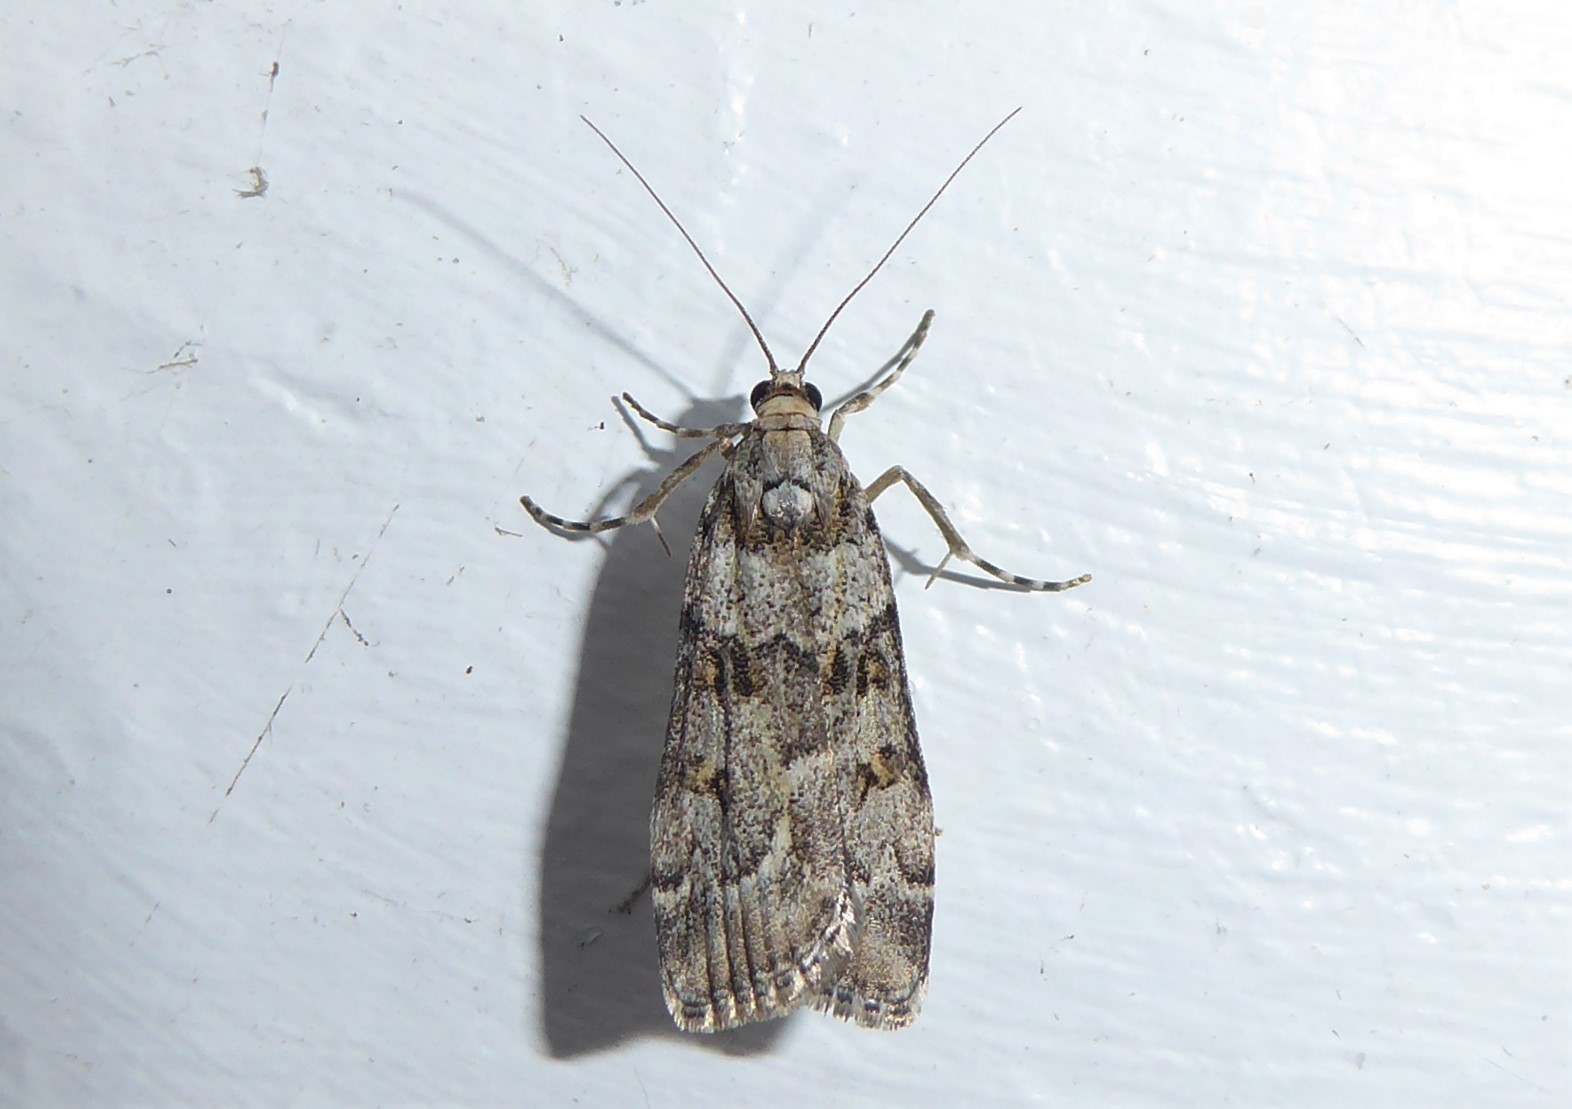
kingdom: Animalia
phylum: Arthropoda
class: Insecta
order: Lepidoptera
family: Crambidae
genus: Eudonia
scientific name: Eudonia diphtheralis
